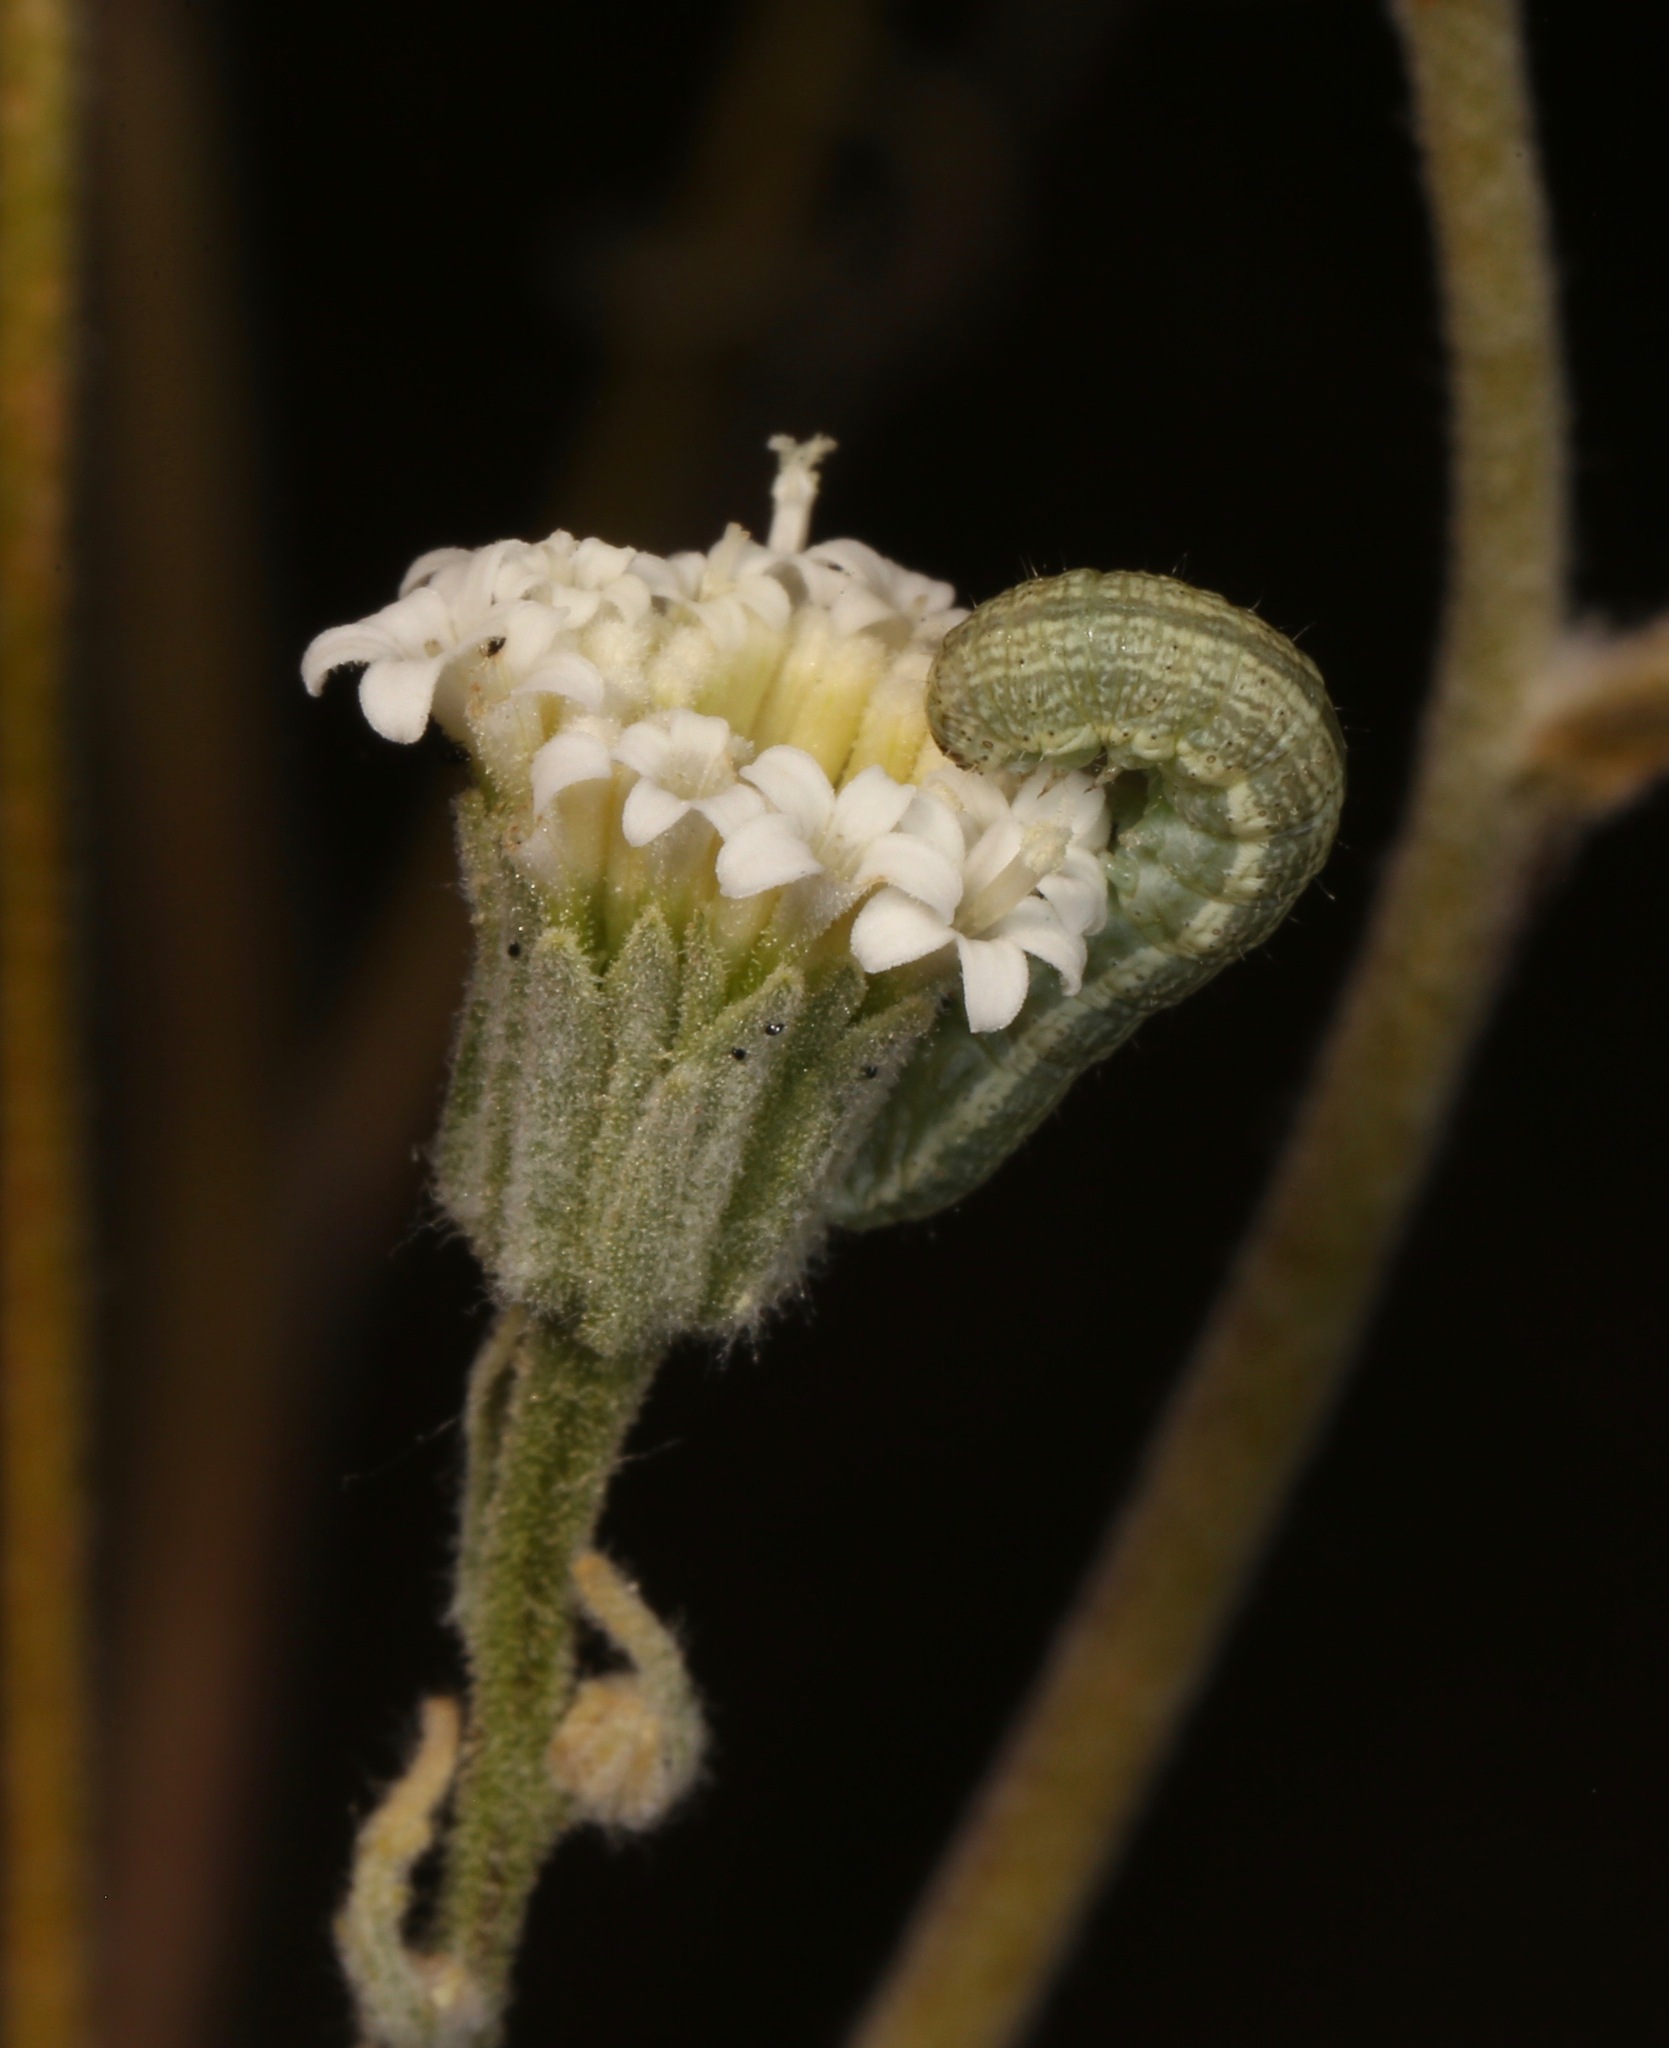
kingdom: Animalia
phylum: Arthropoda
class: Insecta
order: Lepidoptera
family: Noctuidae
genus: Schinia
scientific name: Schinia graefiana
